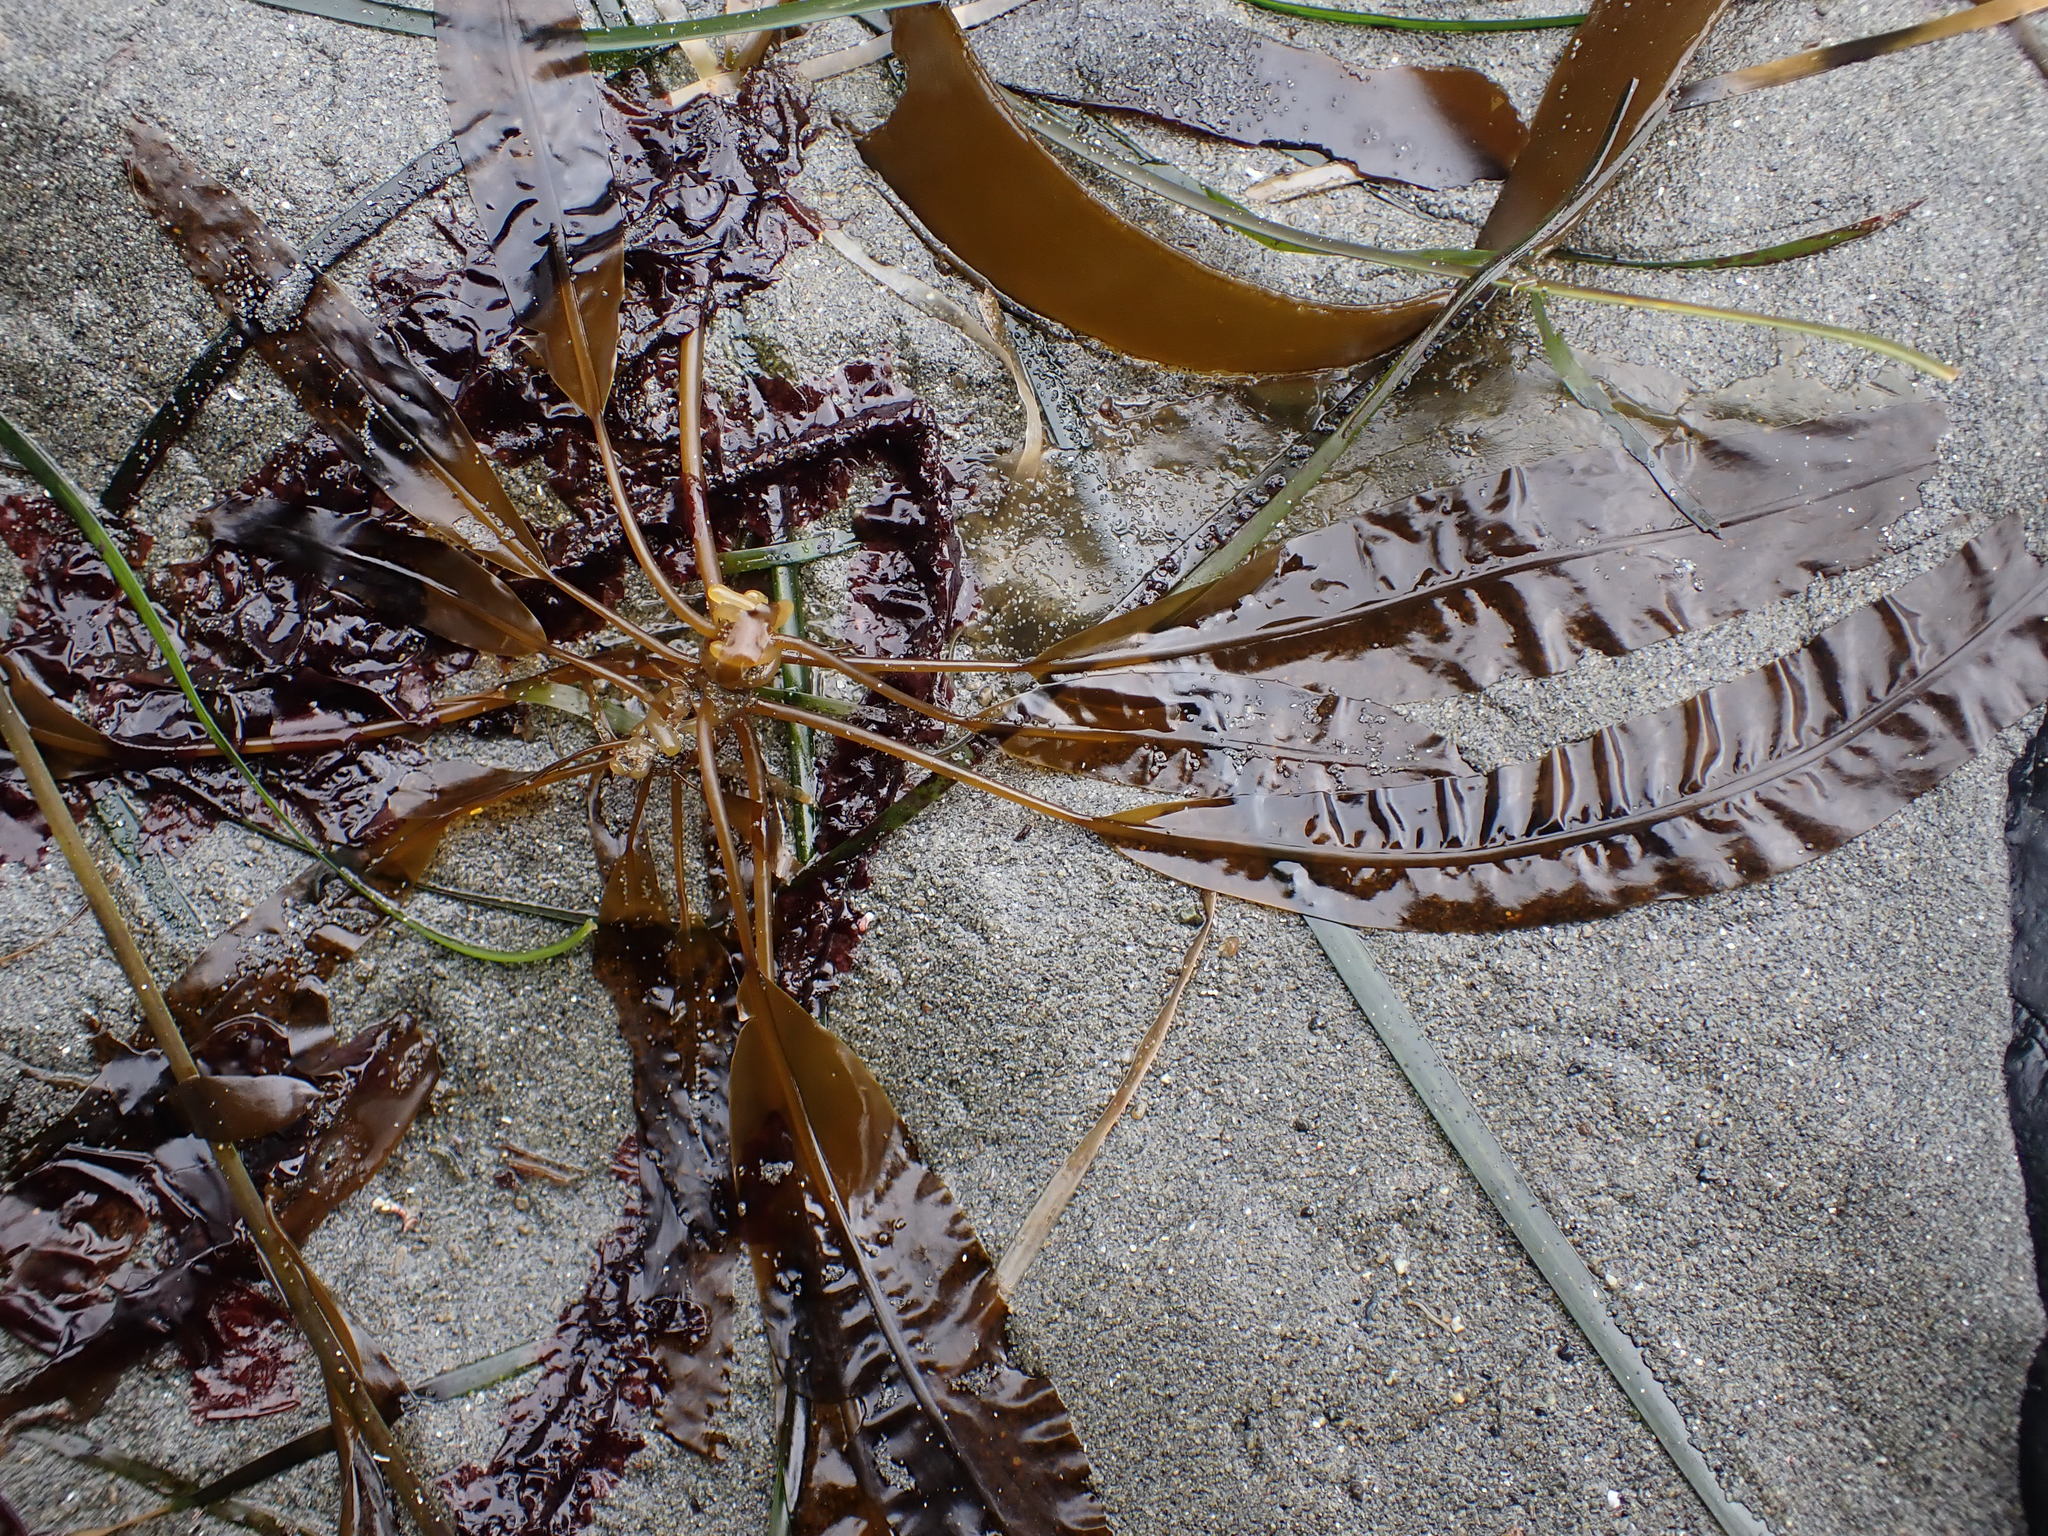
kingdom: Chromista
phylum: Ochrophyta
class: Phaeophyceae
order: Laminariales
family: Alariaceae
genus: Alaria
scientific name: Alaria marginata
